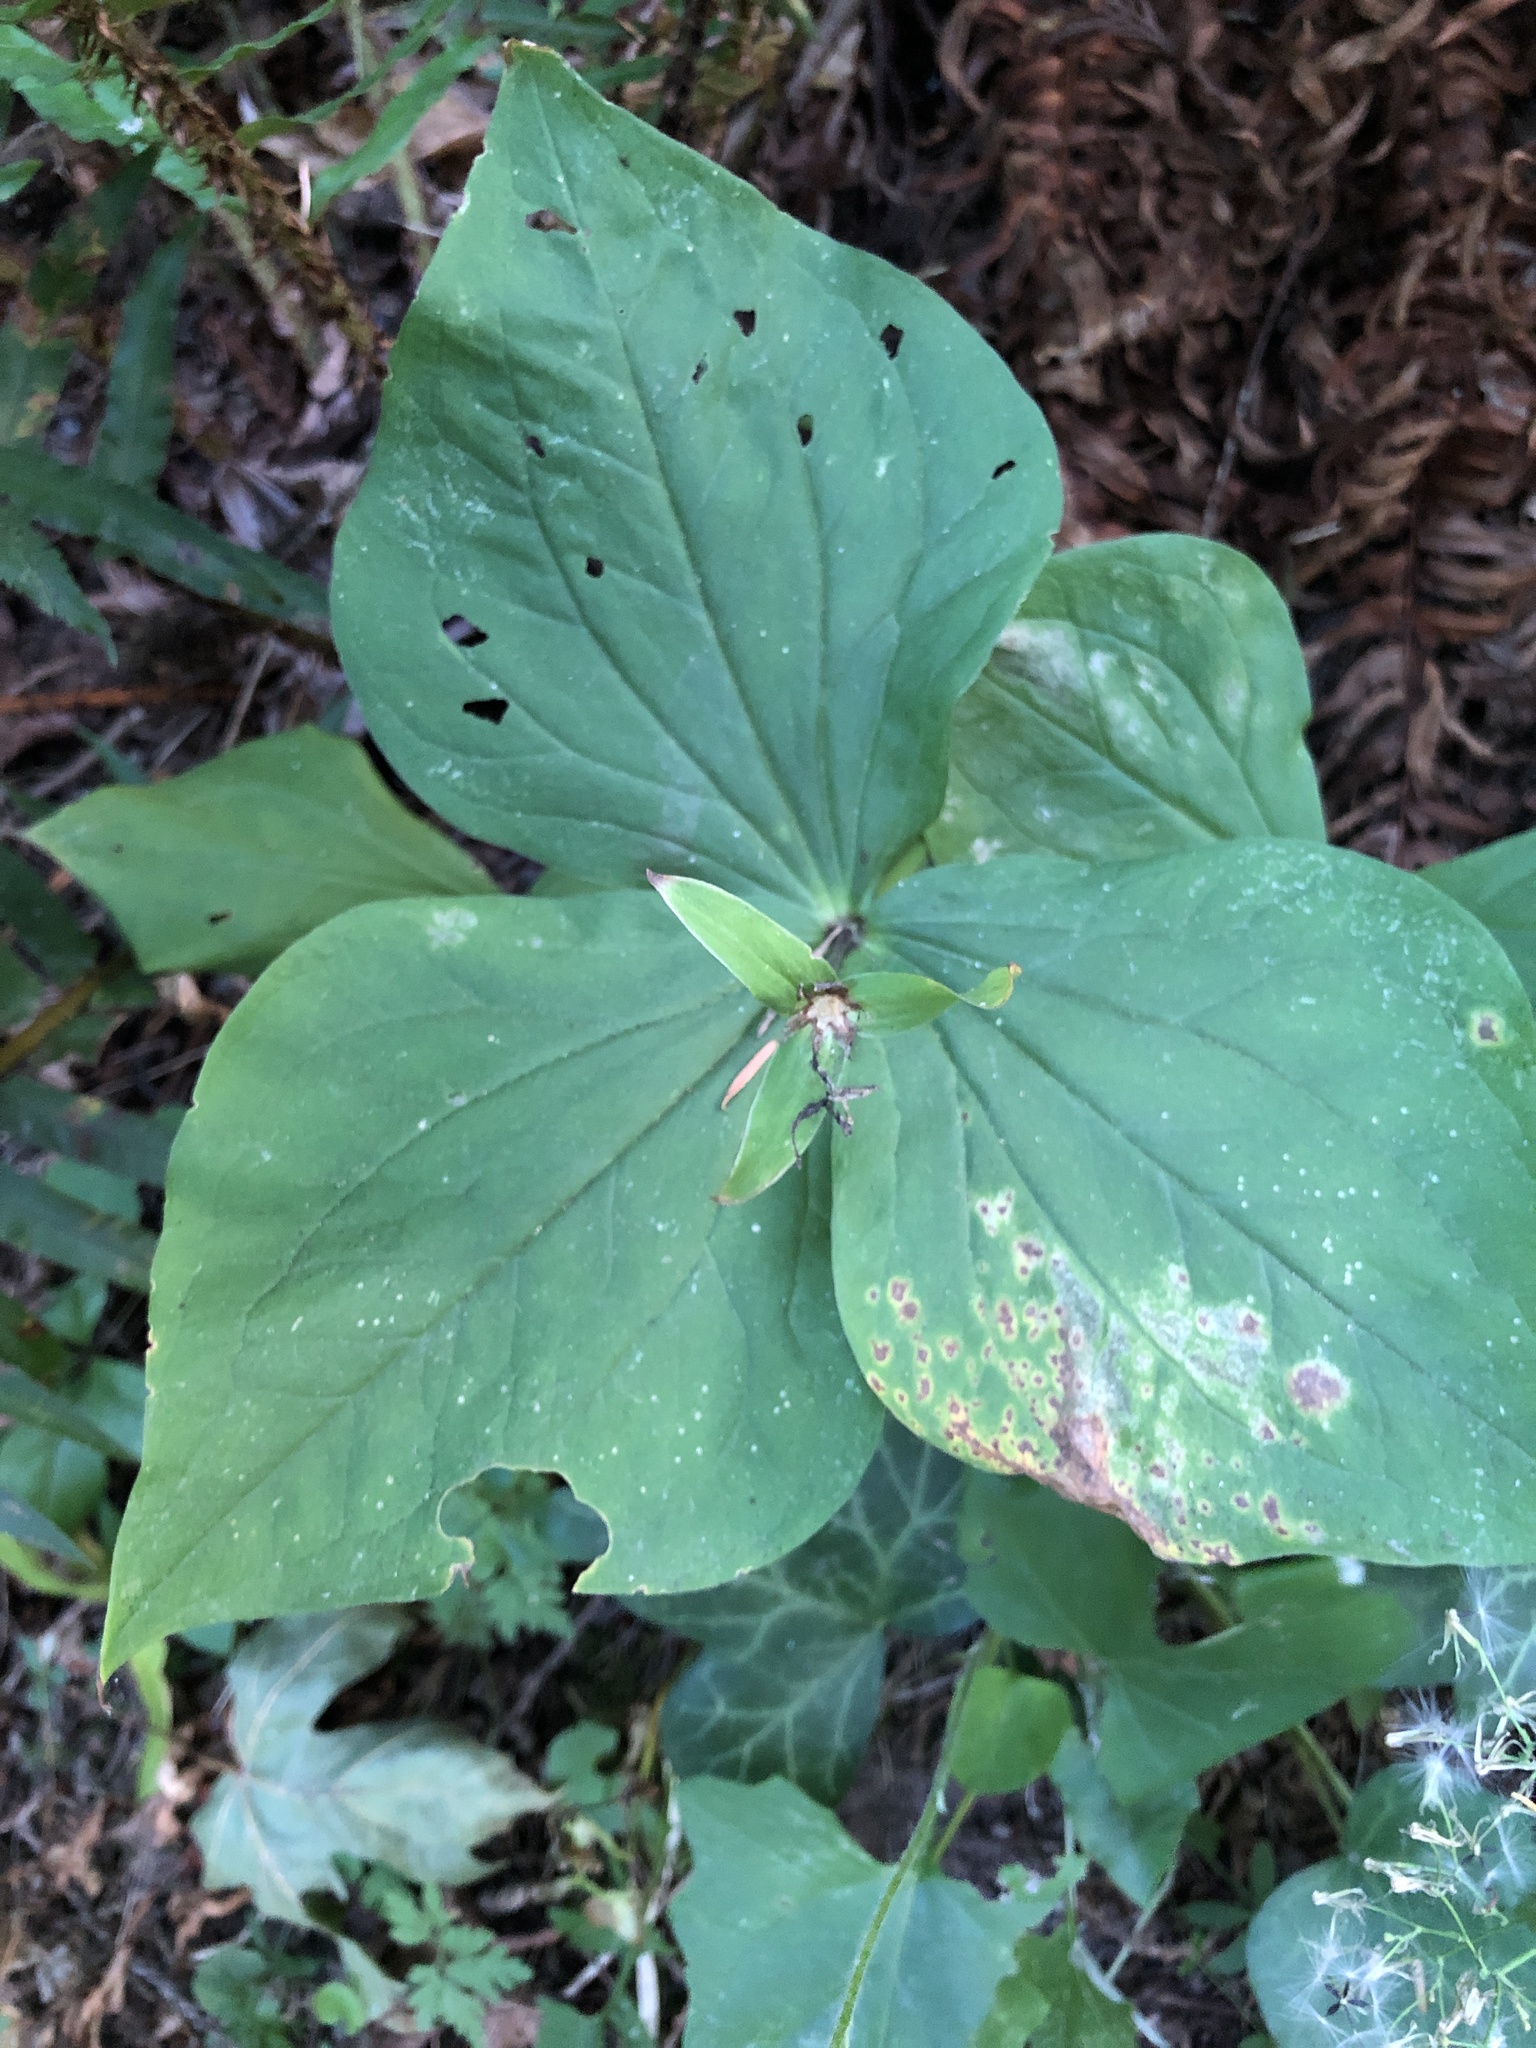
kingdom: Plantae
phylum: Tracheophyta
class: Liliopsida
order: Liliales
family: Melanthiaceae
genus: Trillium
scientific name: Trillium ovatum
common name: Pacific trillium
